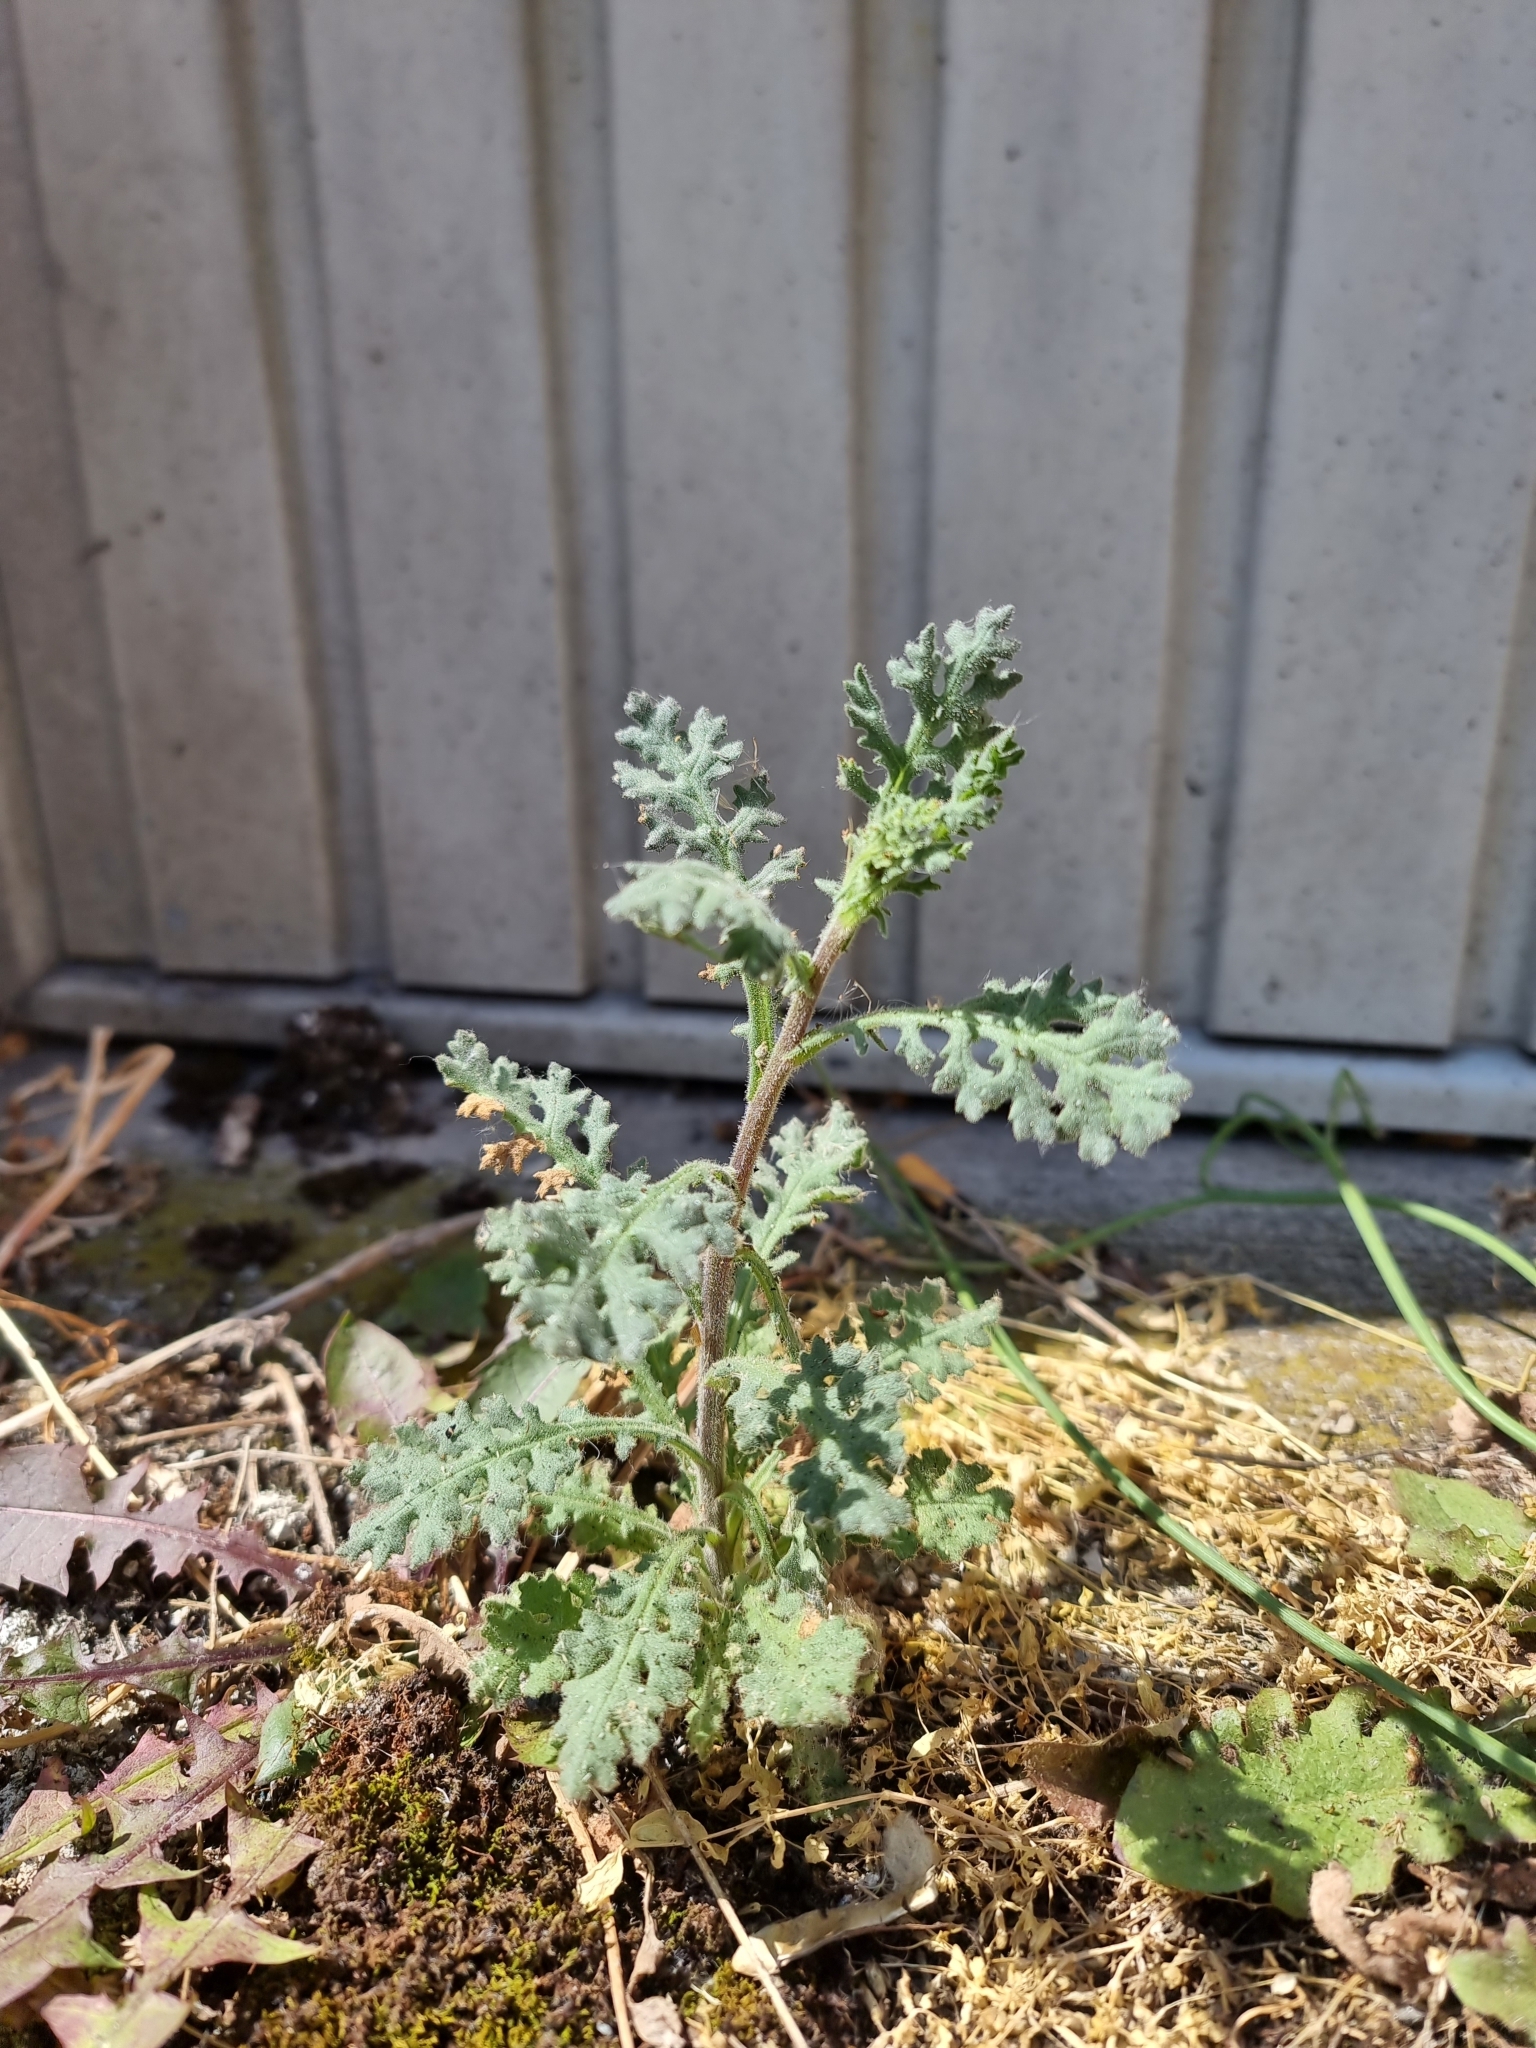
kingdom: Plantae
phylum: Tracheophyta
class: Magnoliopsida
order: Asterales
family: Asteraceae
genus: Senecio
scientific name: Senecio viscosus
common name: Sticky groundsel
